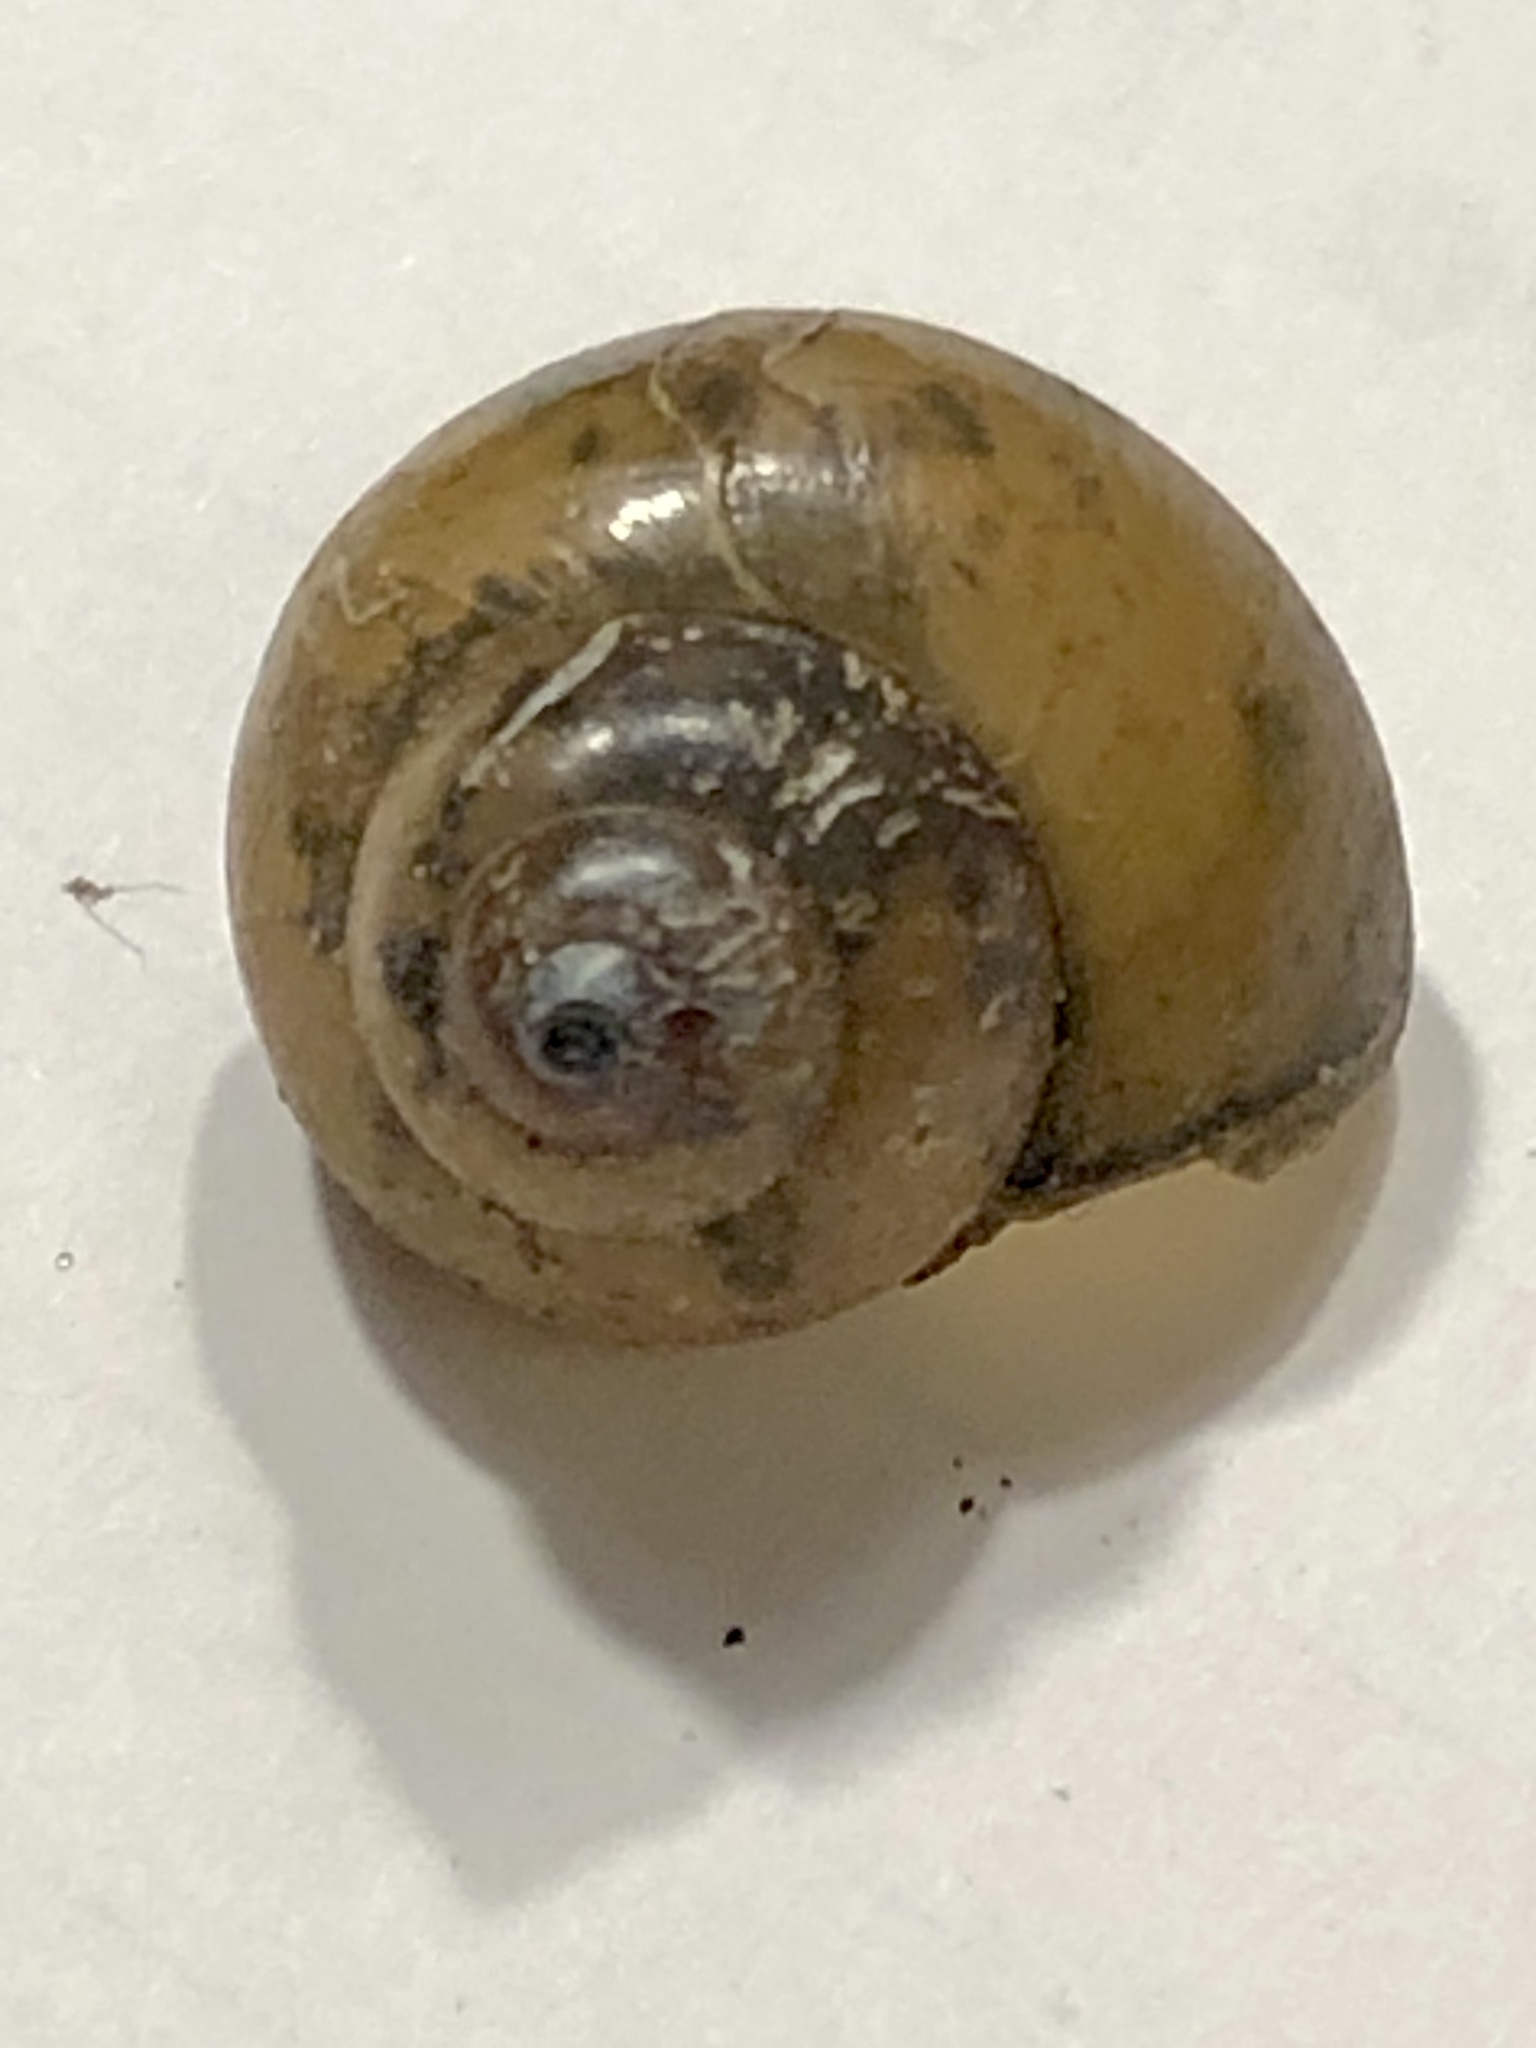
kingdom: Animalia
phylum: Mollusca
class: Gastropoda
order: Architaenioglossa
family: Viviparidae
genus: Cipangopaludina
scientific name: Cipangopaludina chinensis
